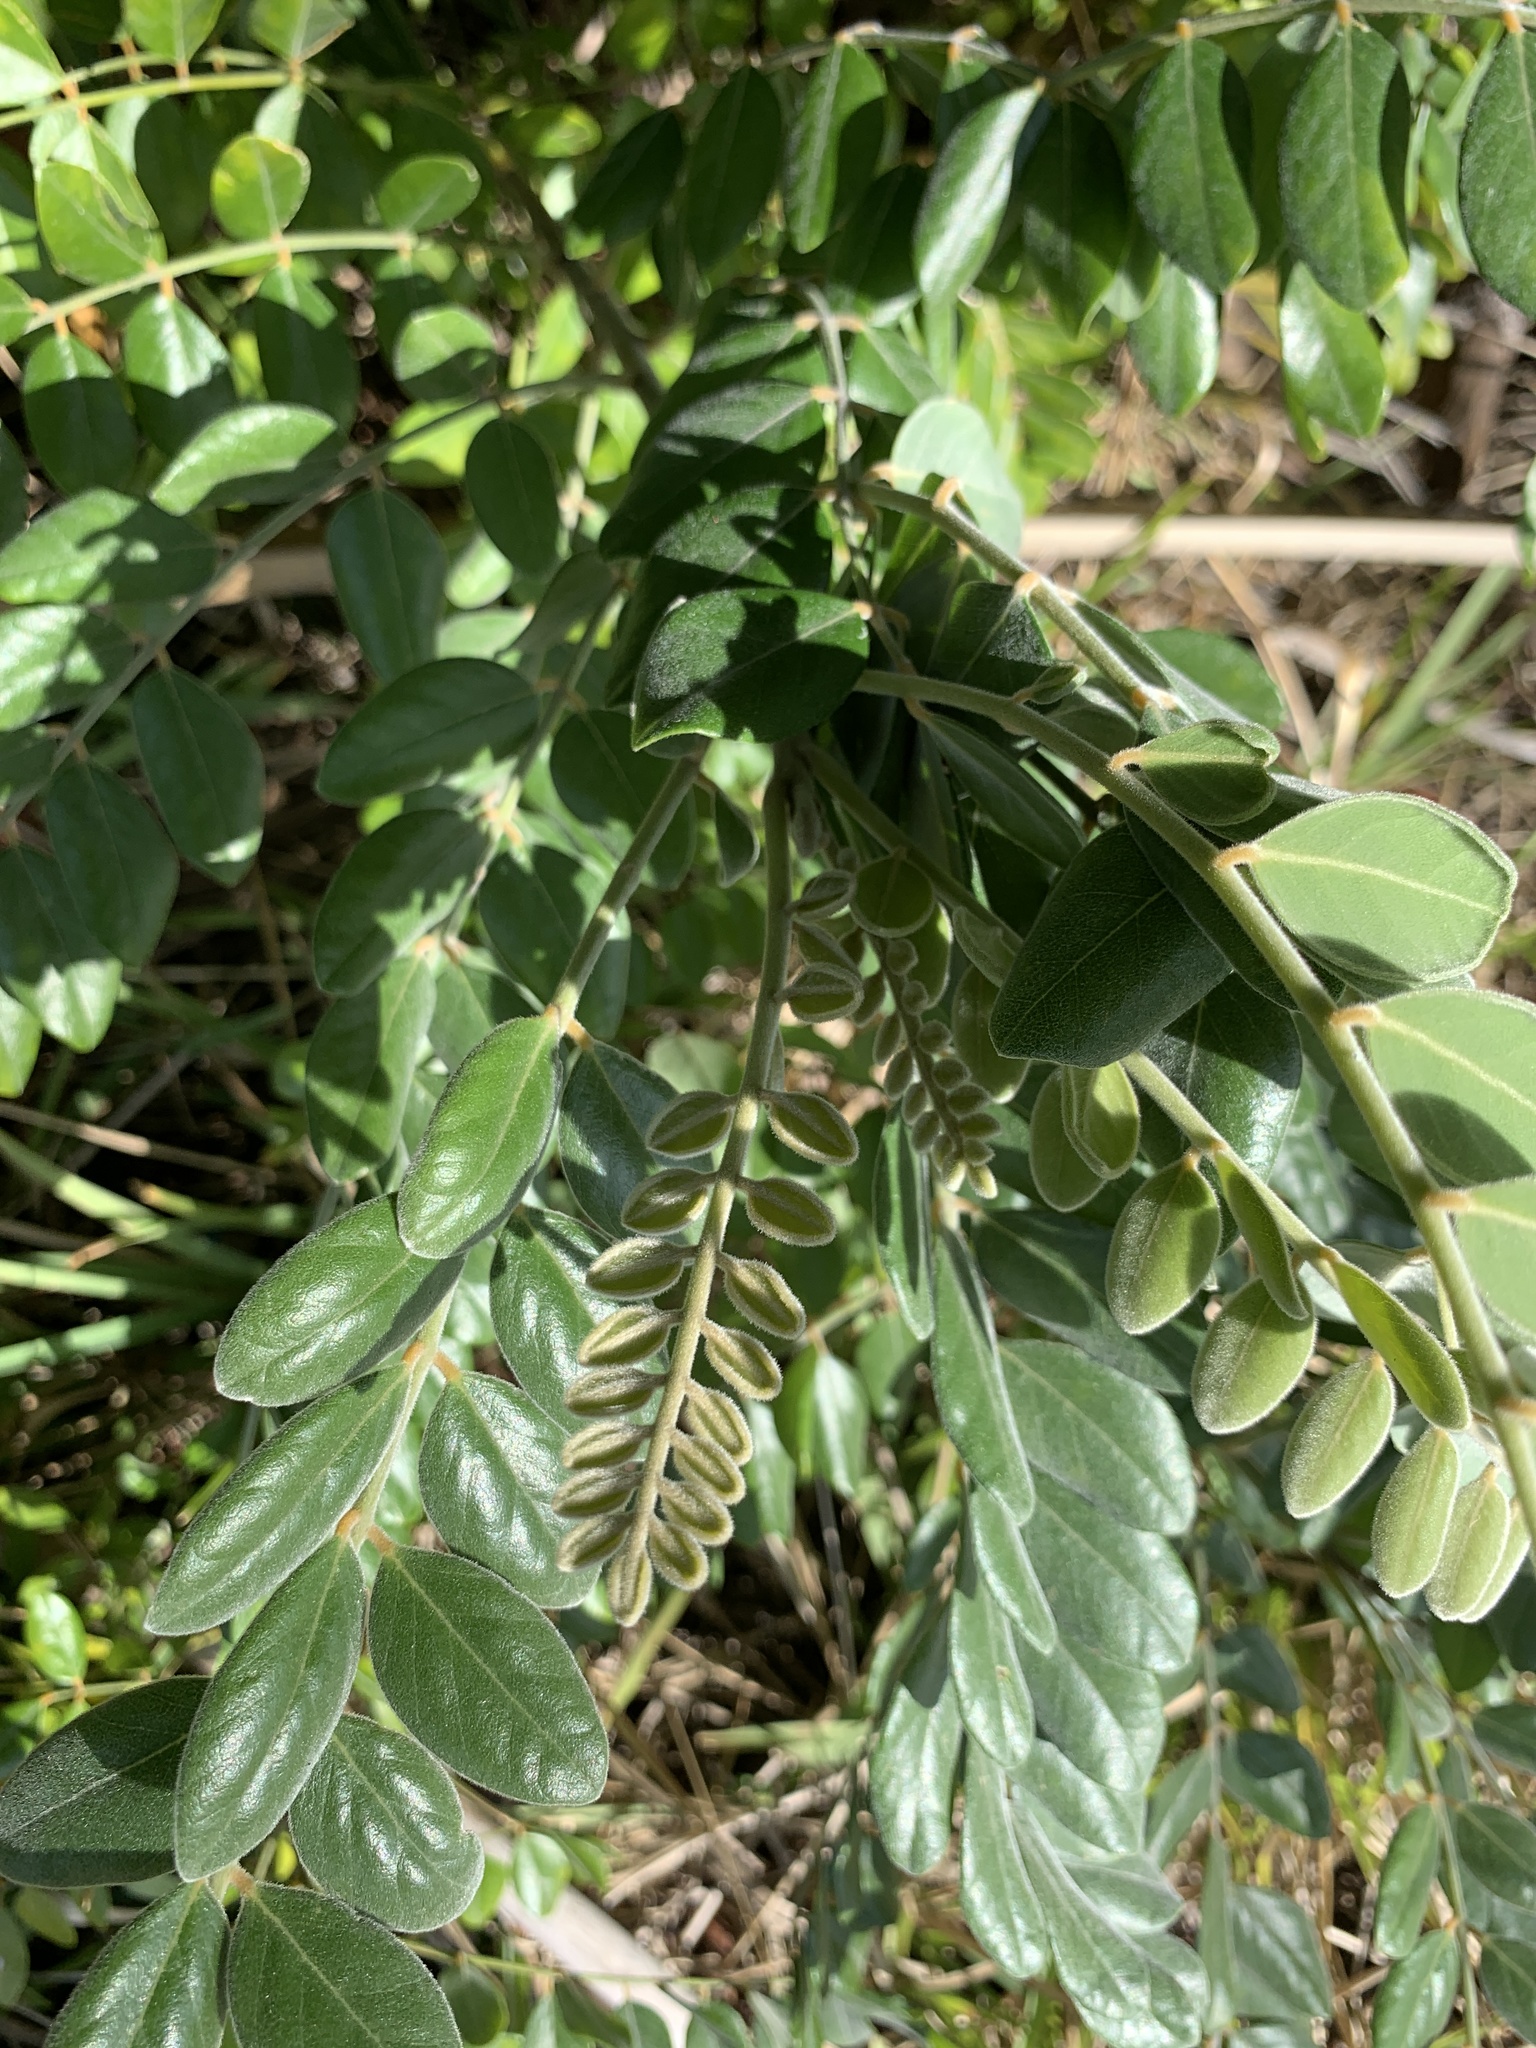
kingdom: Plantae
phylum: Tracheophyta
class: Magnoliopsida
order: Fabales
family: Fabaceae
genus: Sophora
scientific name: Sophora tomentosa
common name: Yellow necklacepod
